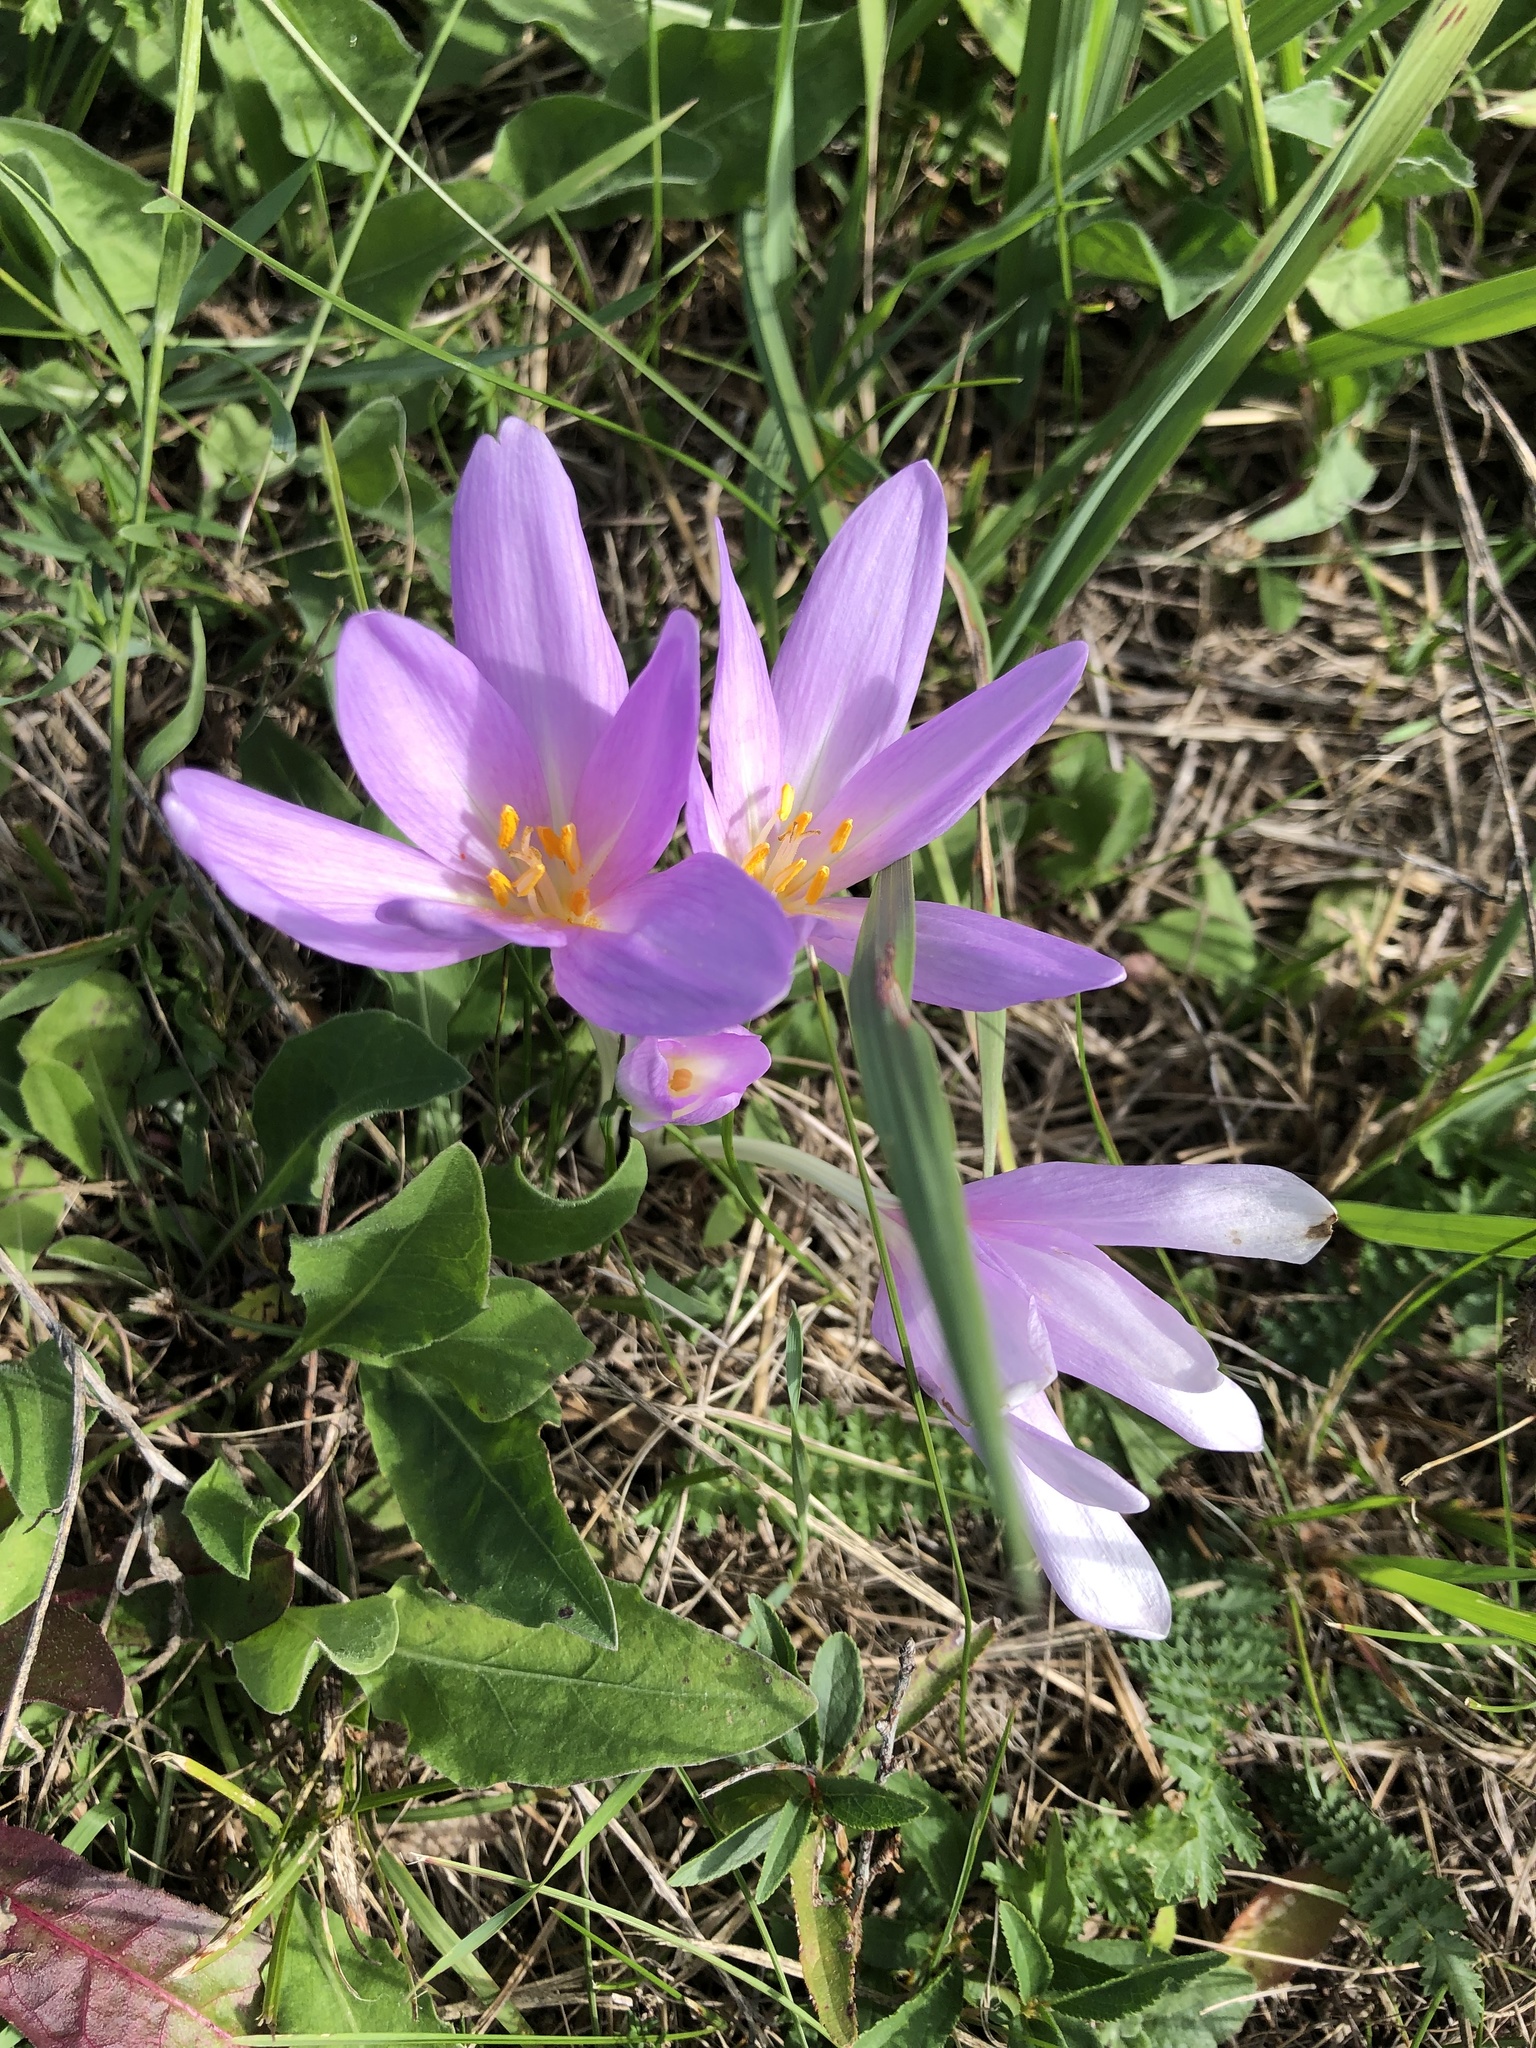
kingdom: Plantae
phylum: Tracheophyta
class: Liliopsida
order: Liliales
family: Colchicaceae
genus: Colchicum
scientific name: Colchicum autumnale
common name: Autumn crocus
